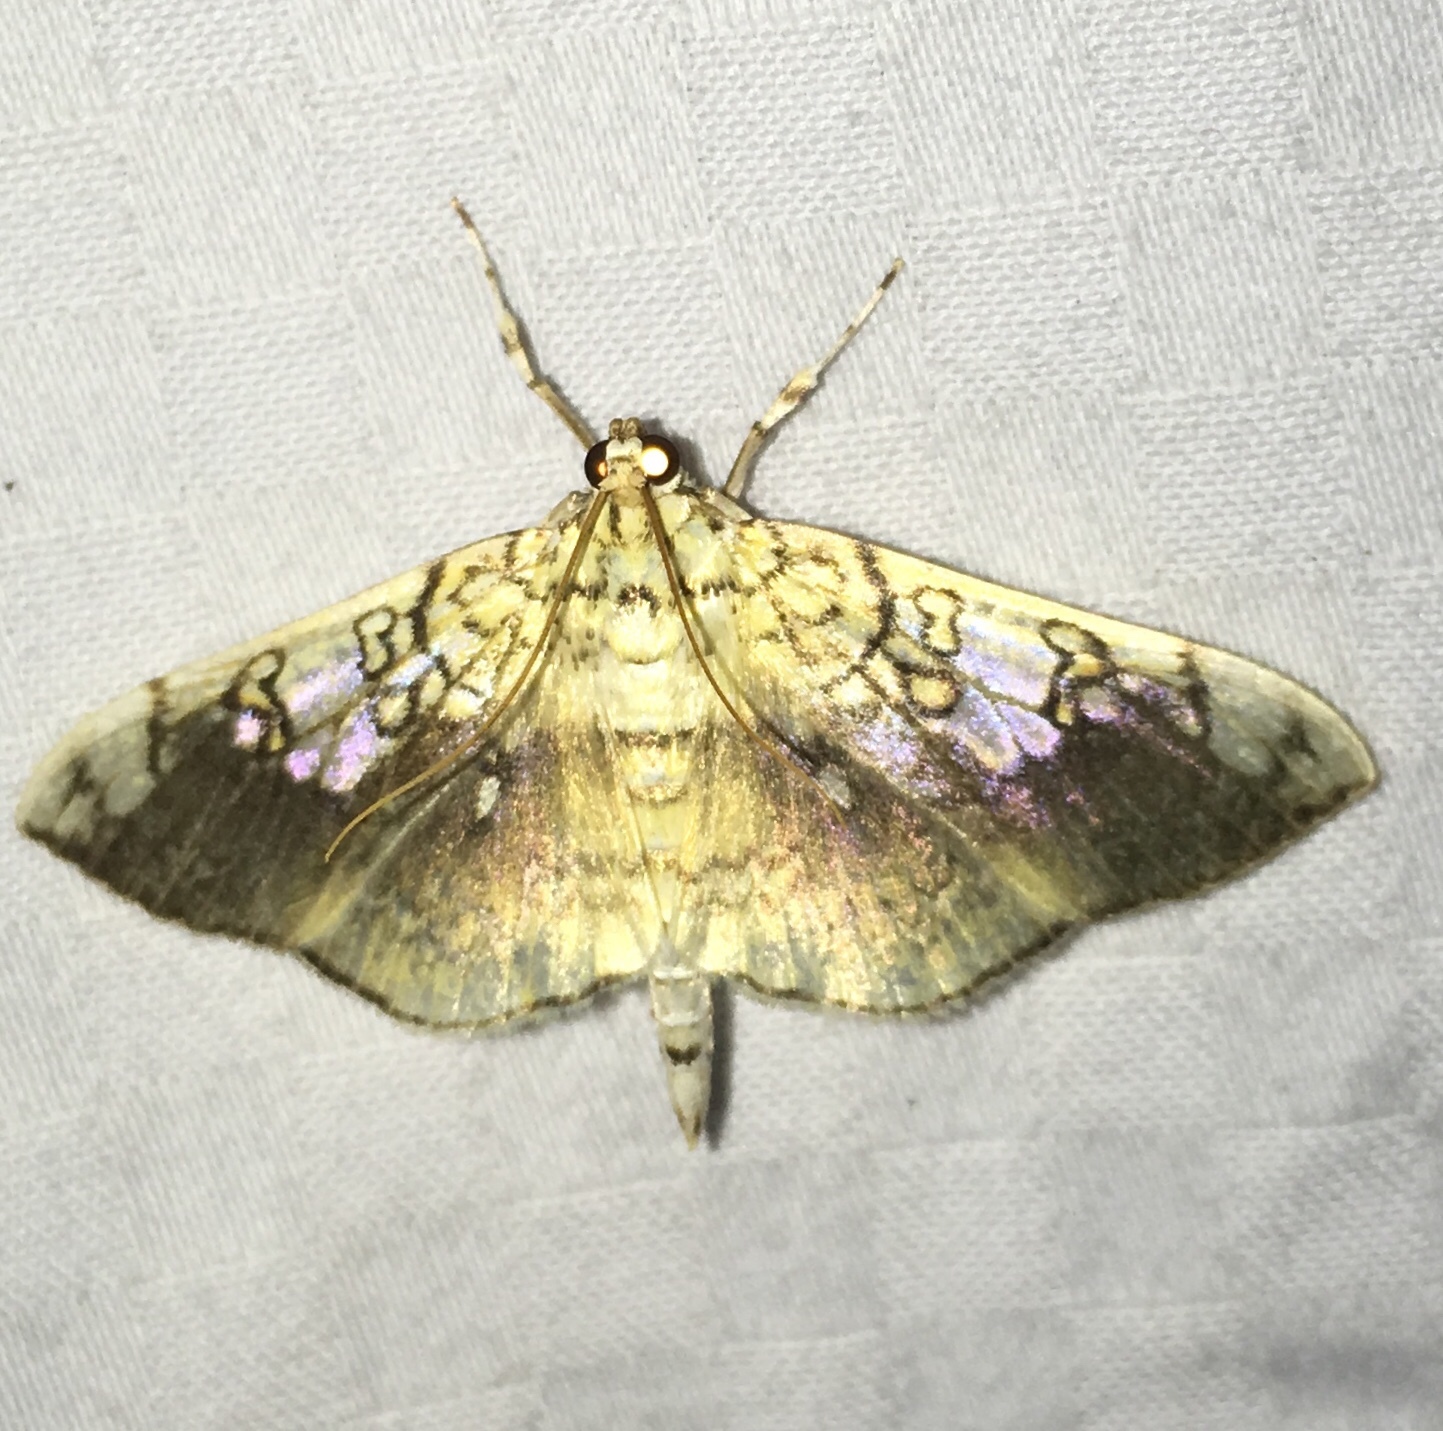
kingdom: Animalia
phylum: Arthropoda
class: Insecta
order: Lepidoptera
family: Crambidae
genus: Pantographa
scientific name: Pantographa limata
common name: Basswood leafroller moth
